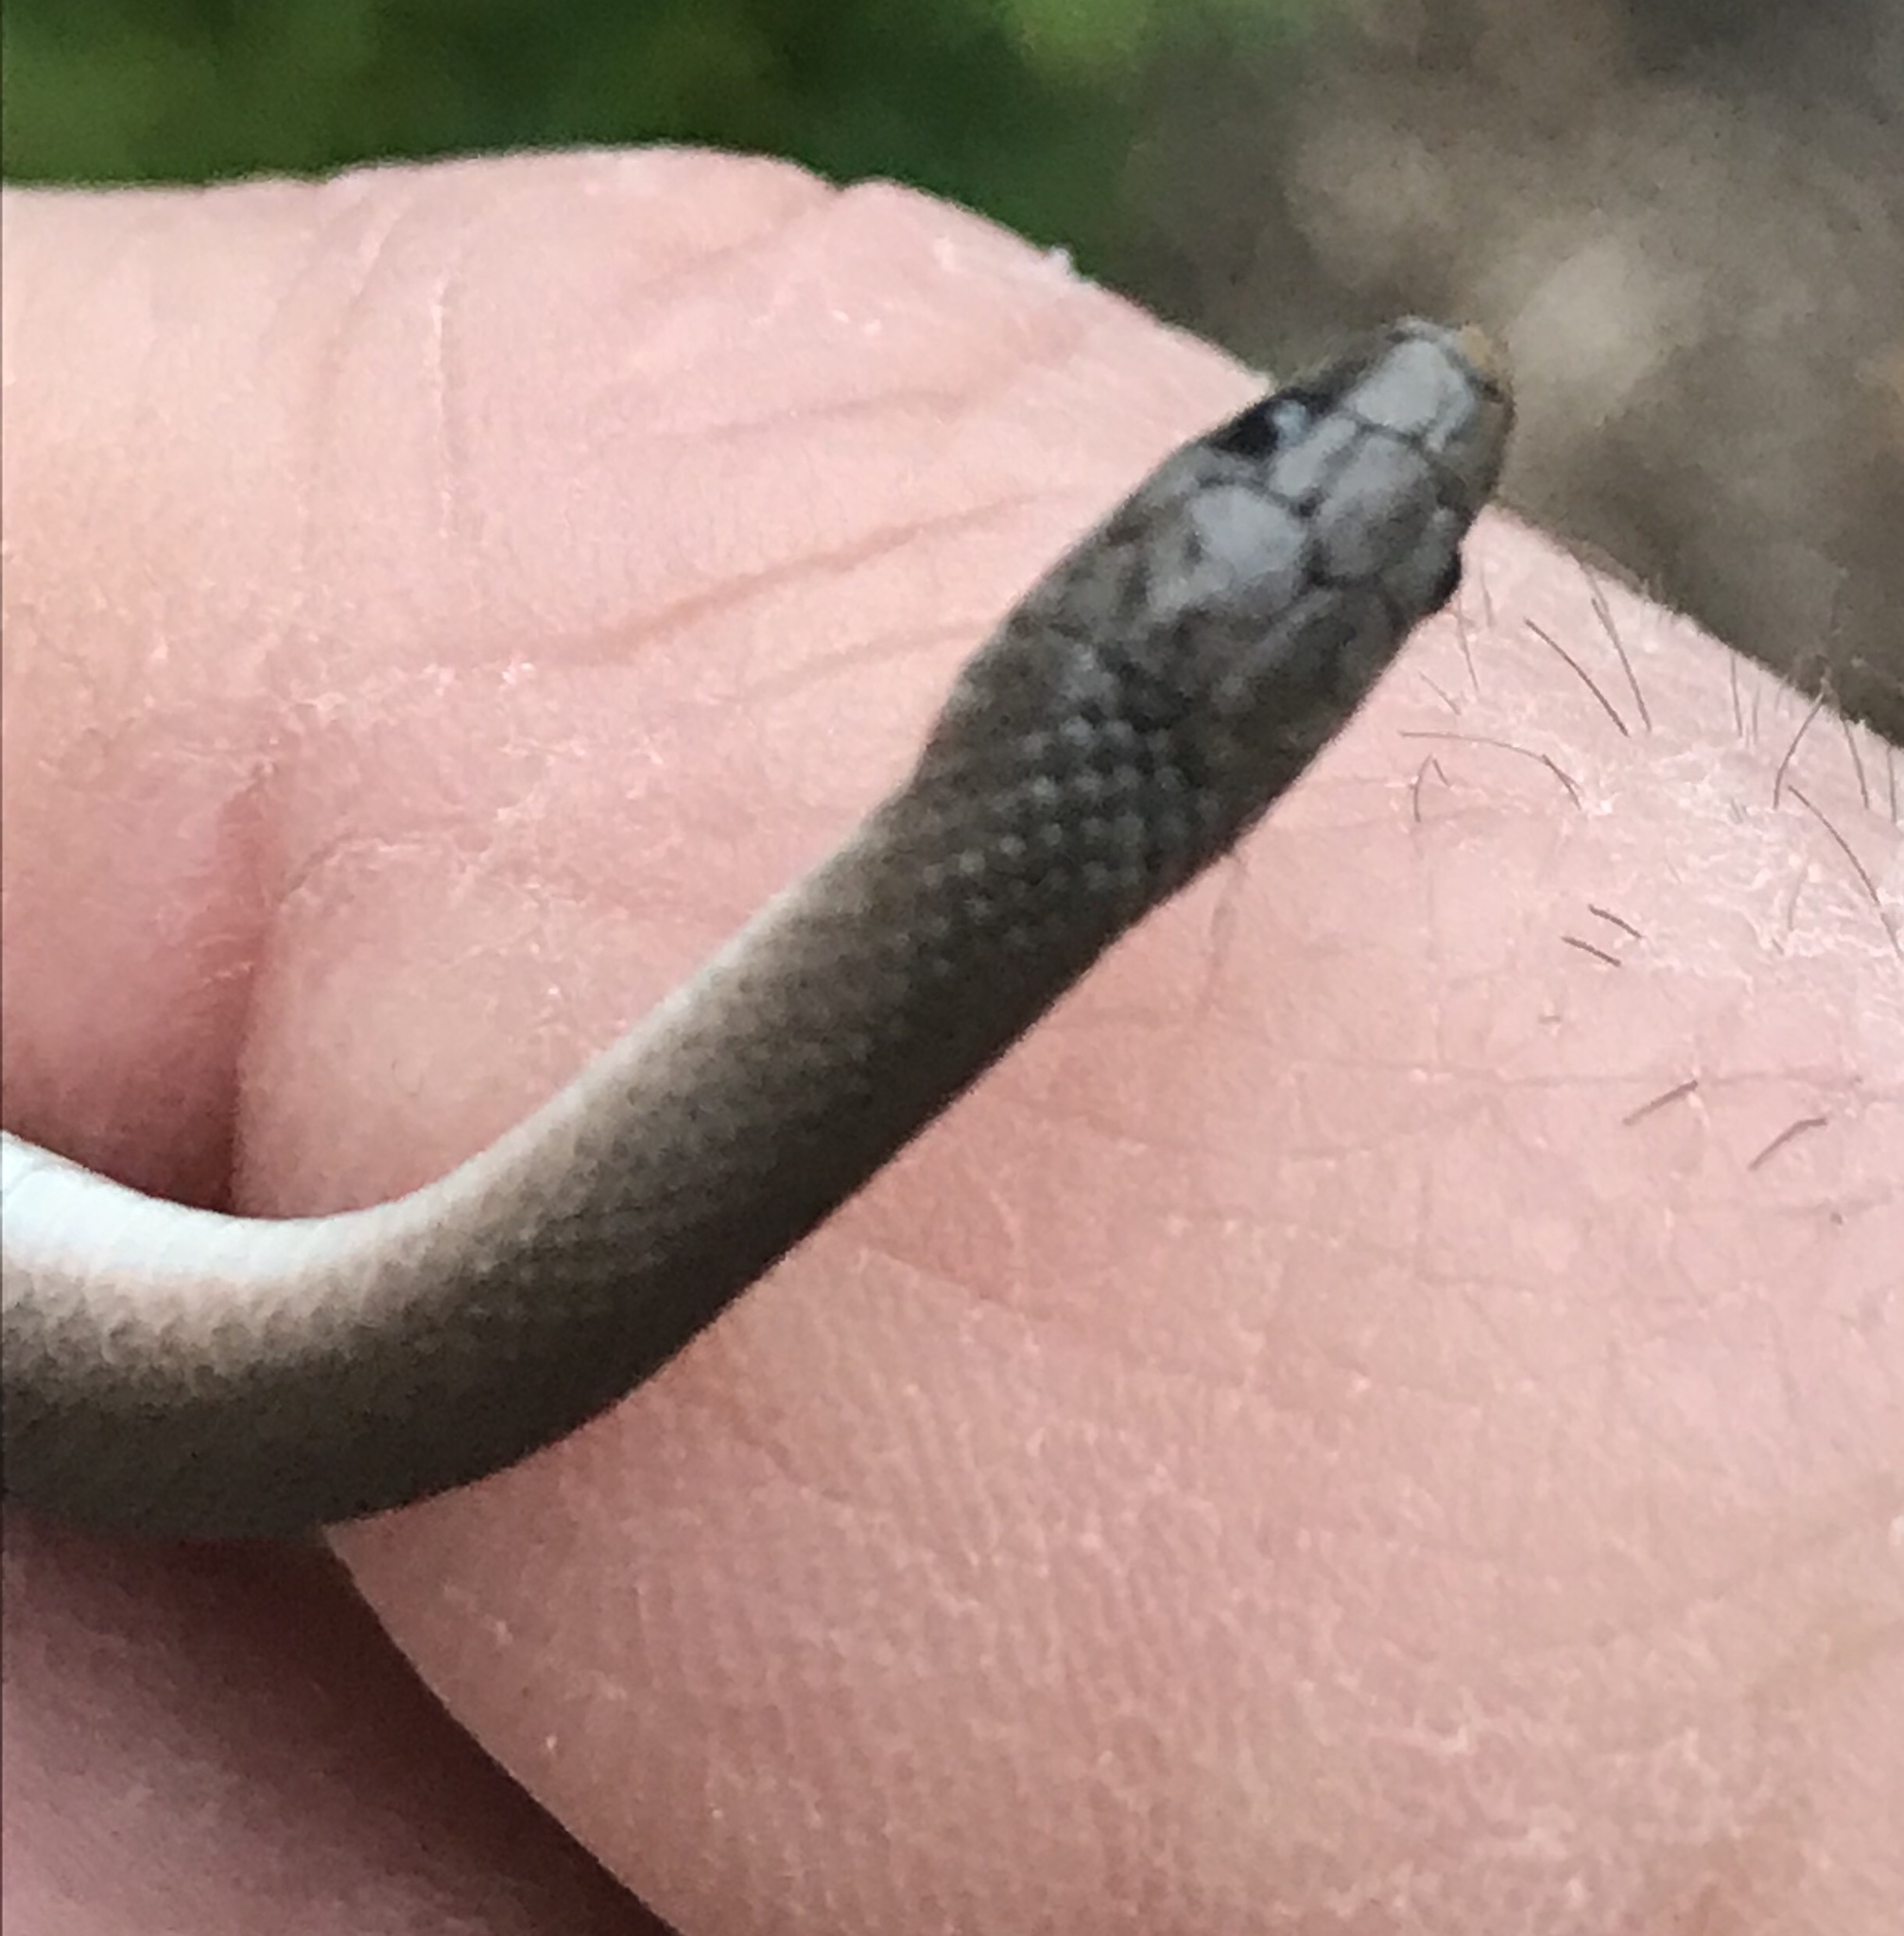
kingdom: Animalia
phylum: Chordata
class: Squamata
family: Colubridae
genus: Haldea
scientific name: Haldea striatula
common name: Rough earth snake
